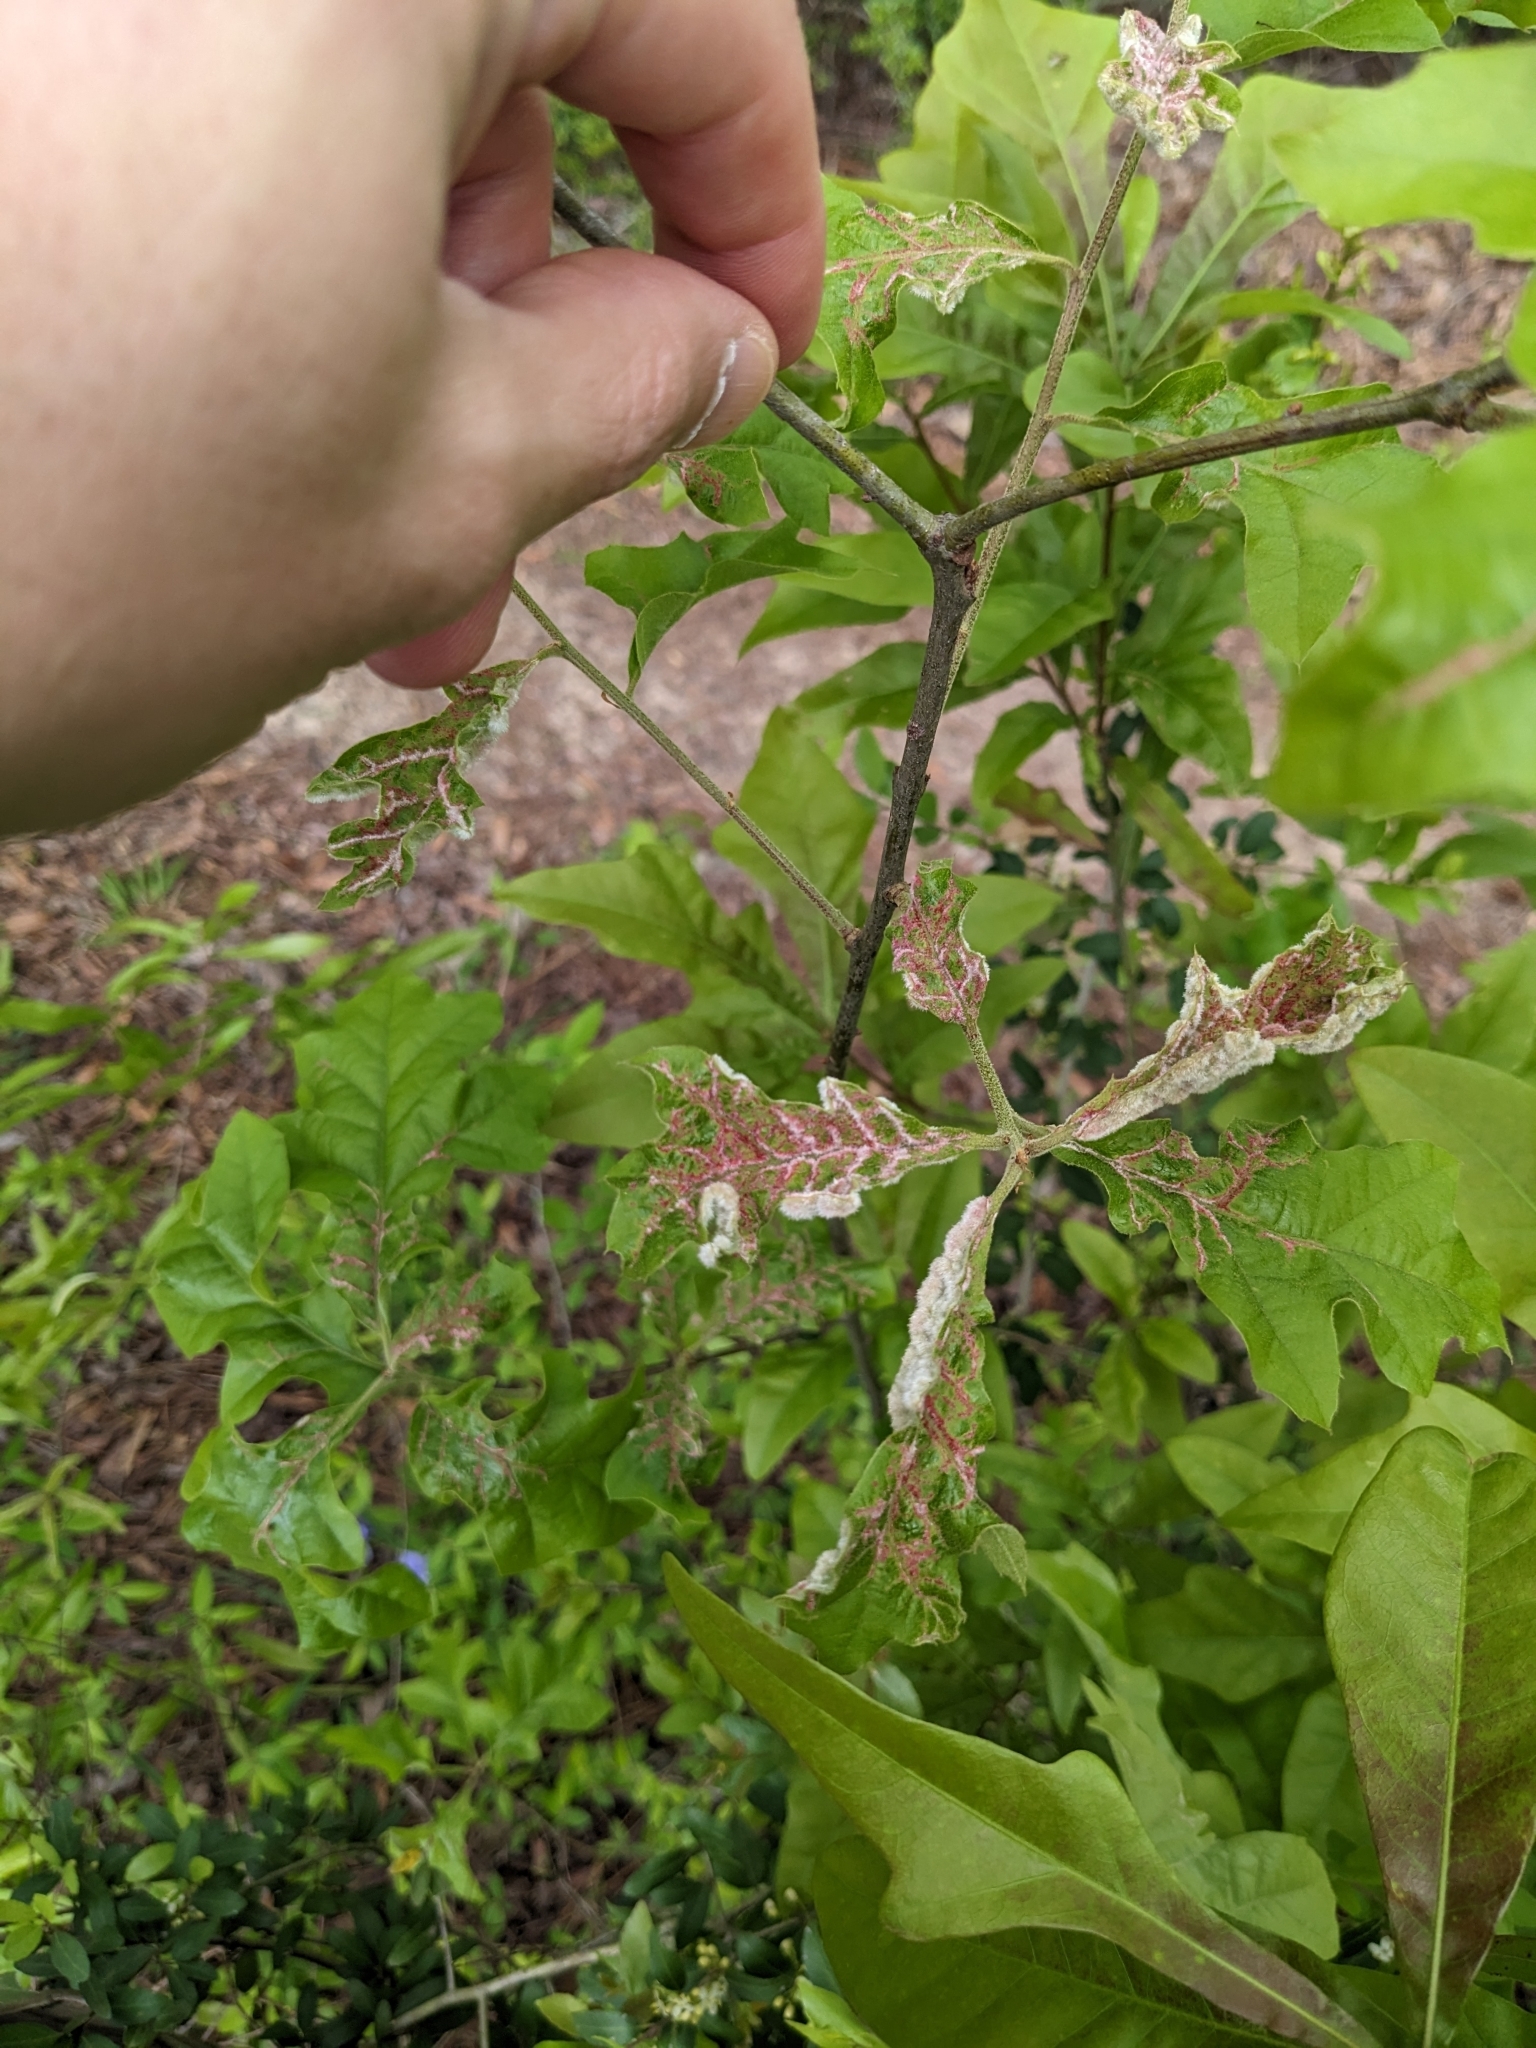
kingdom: Animalia
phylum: Arthropoda
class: Insecta
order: Diptera
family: Cecidomyiidae
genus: Macrodiplosis
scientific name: Macrodiplosis niveipila
